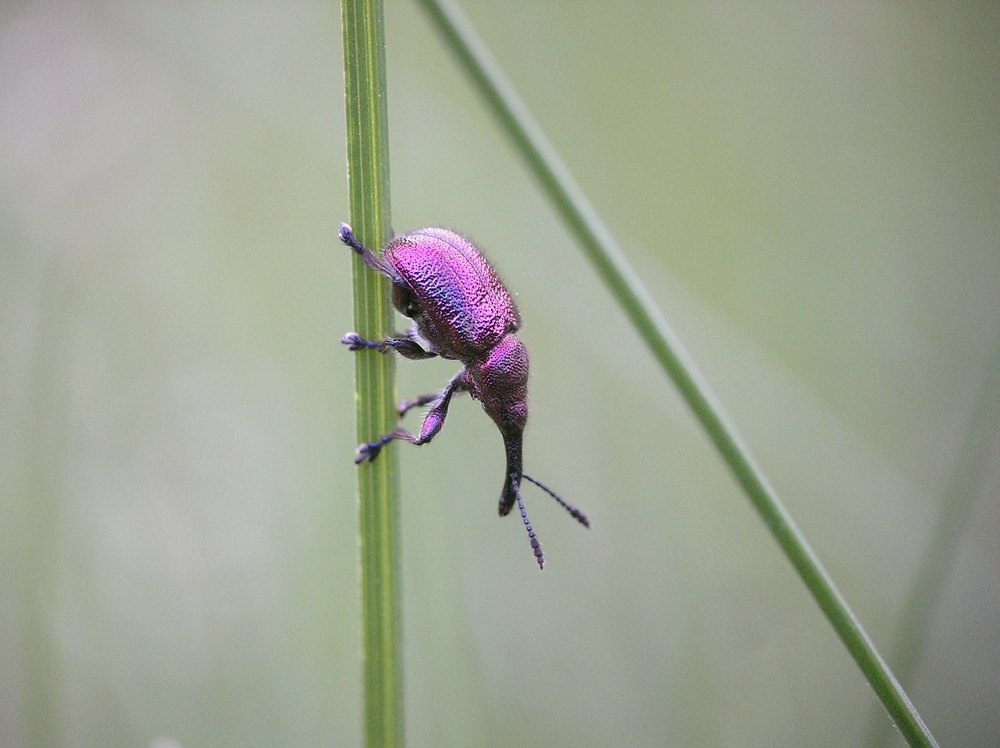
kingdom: Animalia
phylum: Arthropoda
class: Insecta
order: Coleoptera
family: Attelabidae
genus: Rhynchites
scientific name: Rhynchites bacchus
